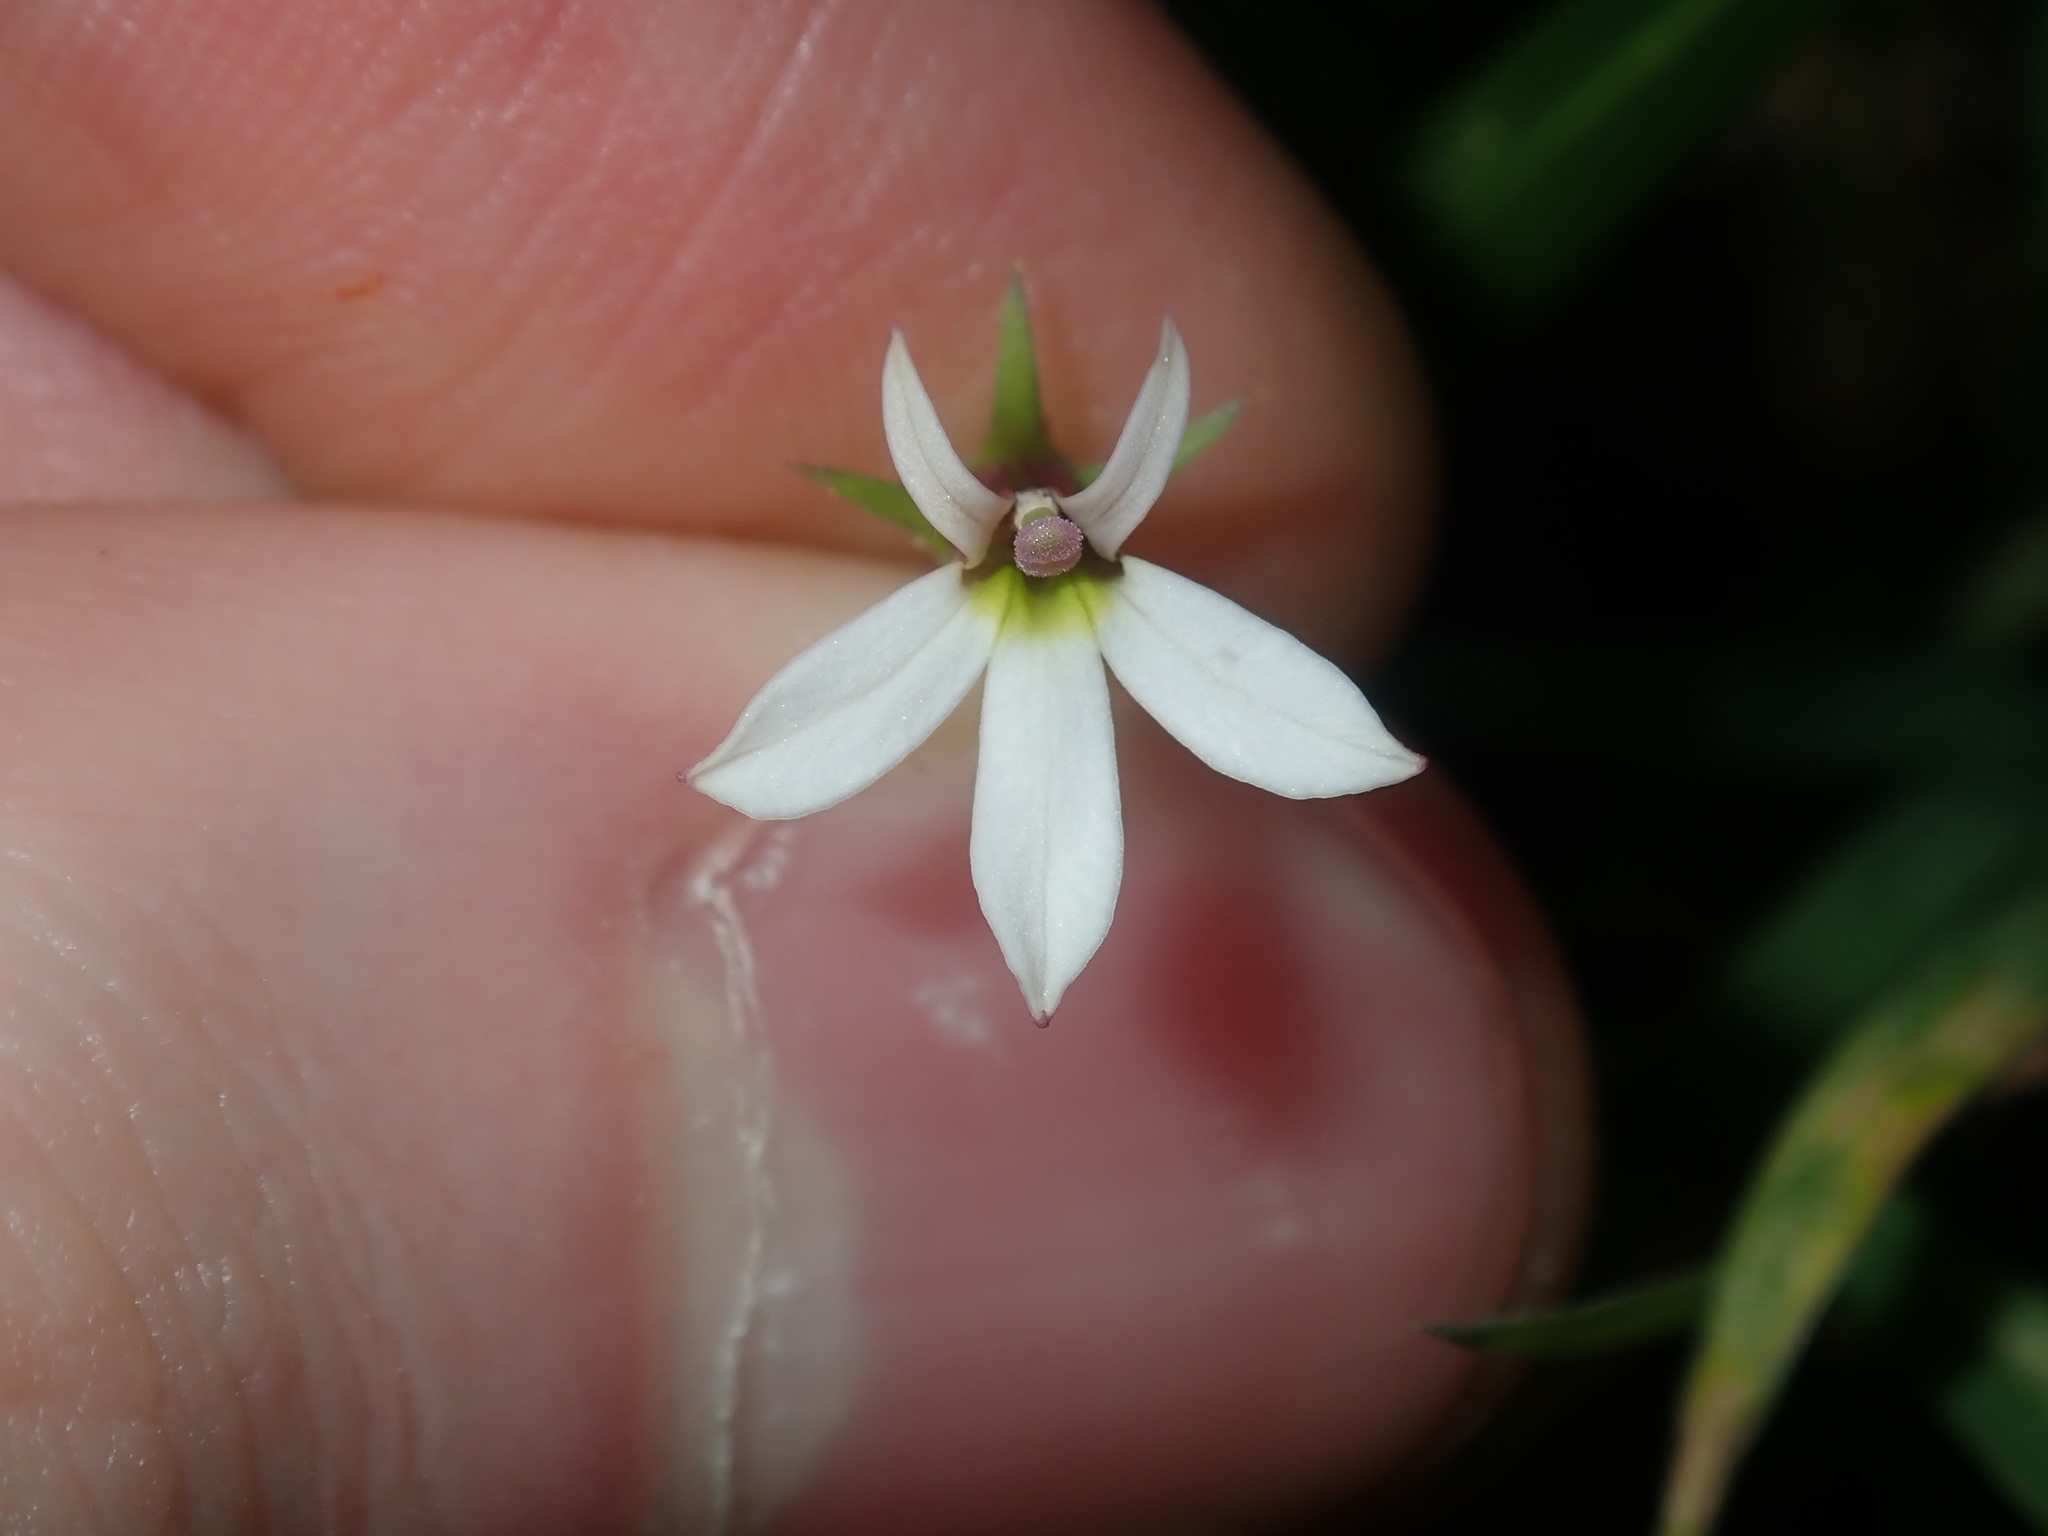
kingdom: Plantae
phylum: Tracheophyta
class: Magnoliopsida
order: Asterales
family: Campanulaceae
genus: Lobelia
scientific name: Lobelia purpurascens
